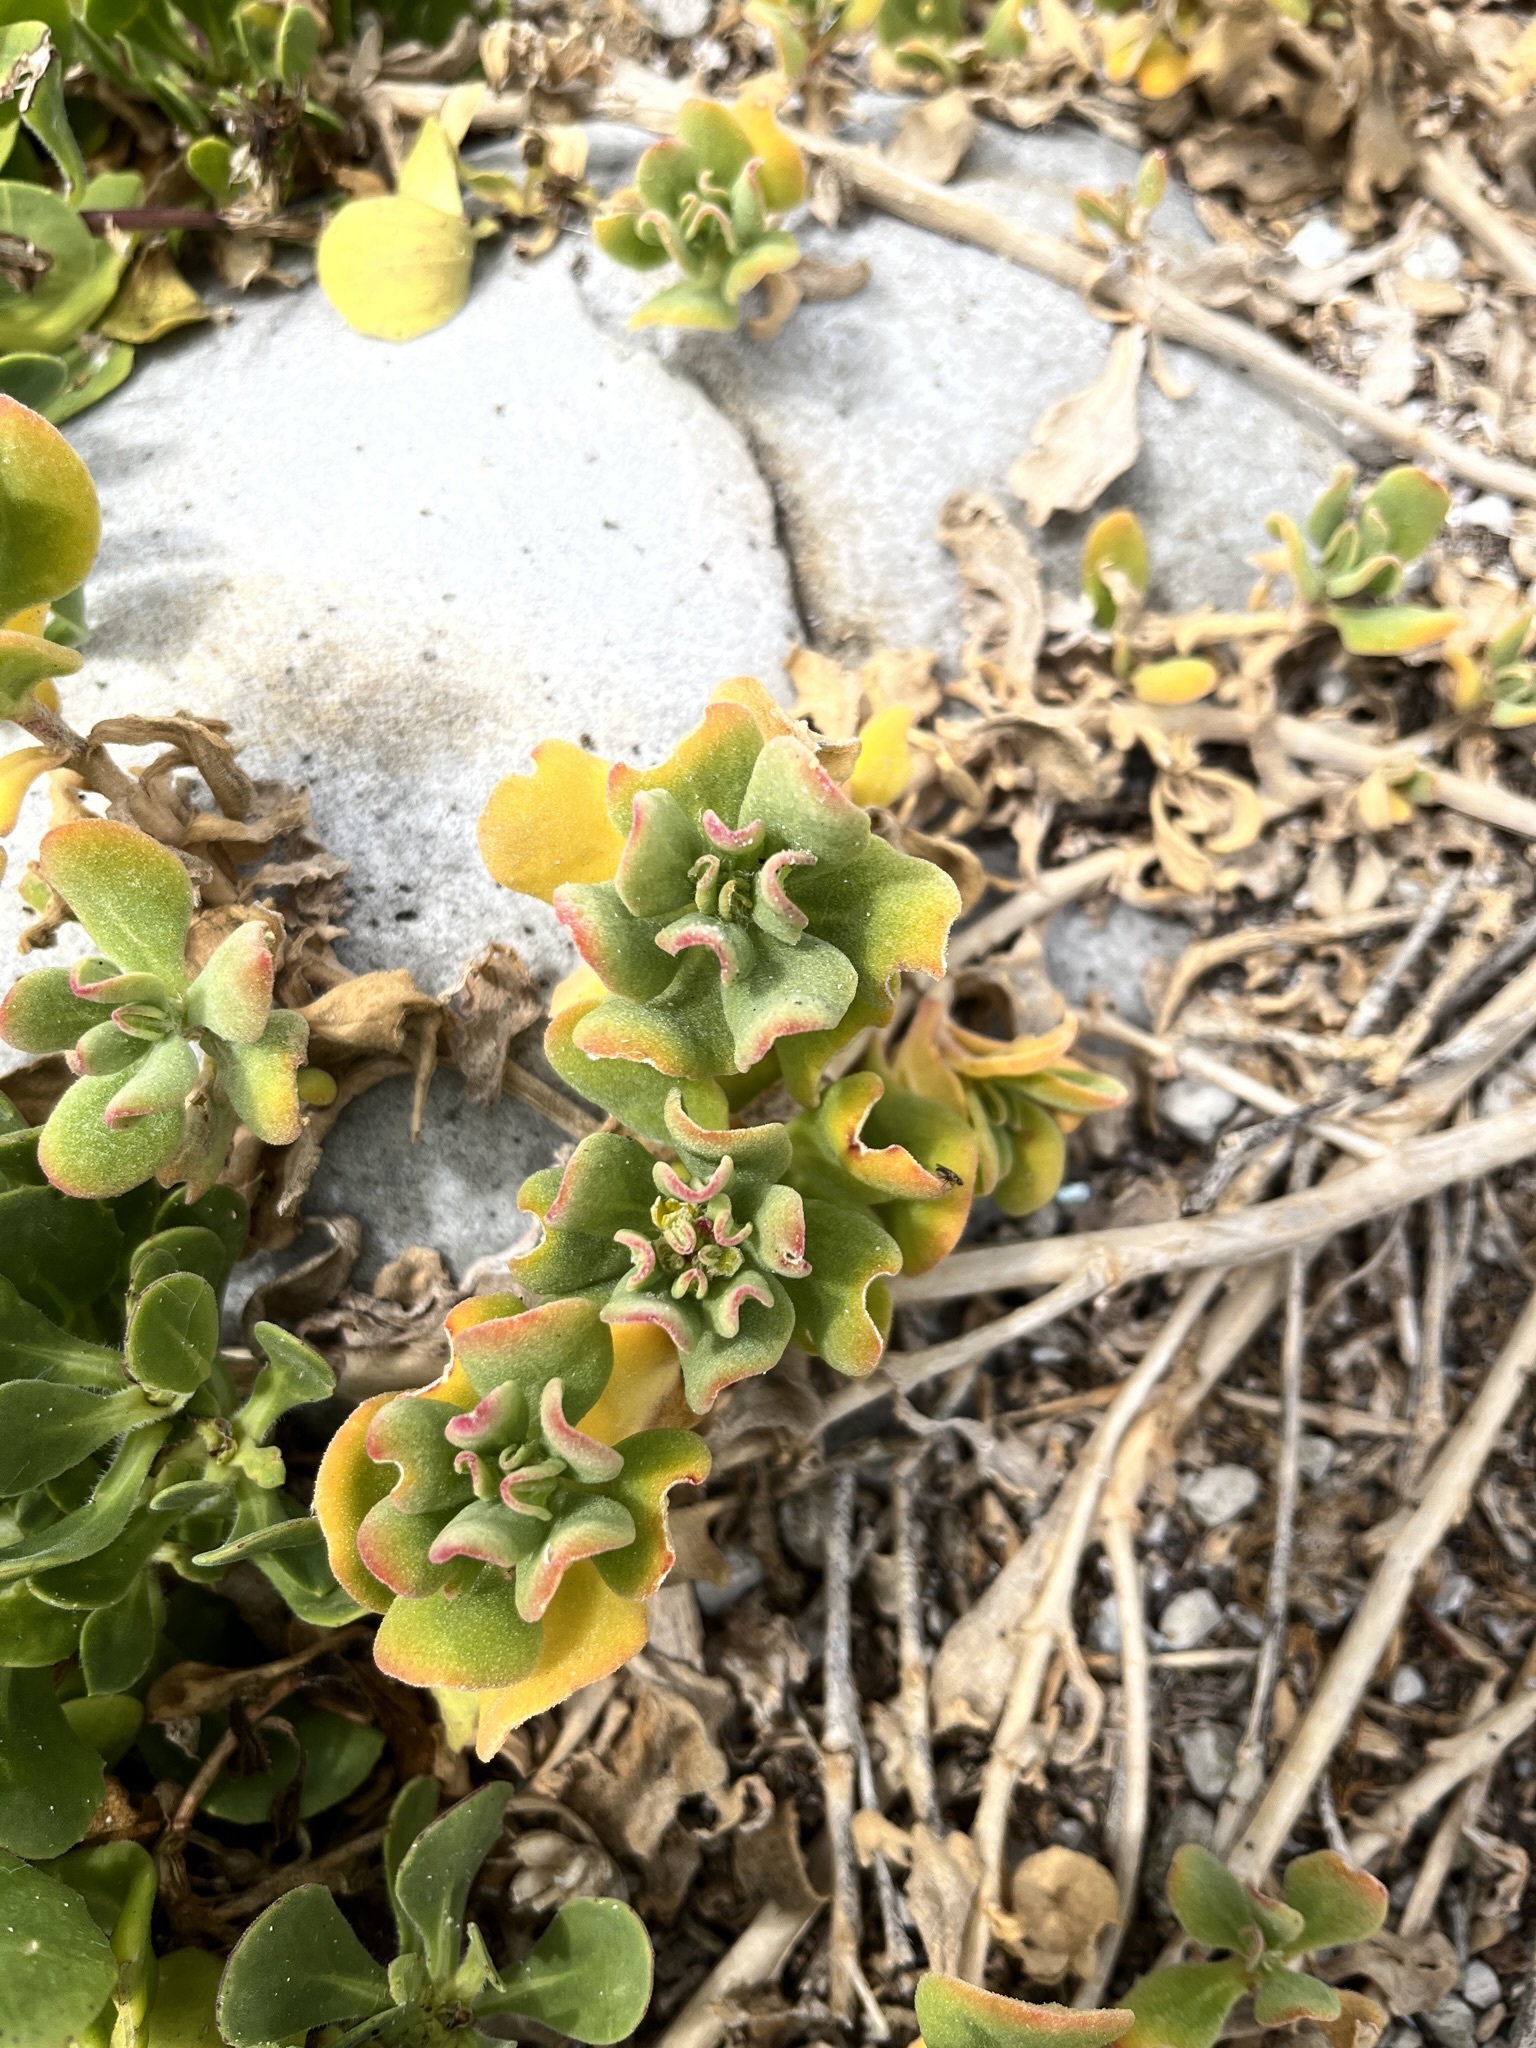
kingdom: Plantae
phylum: Tracheophyta
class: Magnoliopsida
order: Caryophyllales
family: Aizoaceae
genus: Tetragonia
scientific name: Tetragonia decumbens
